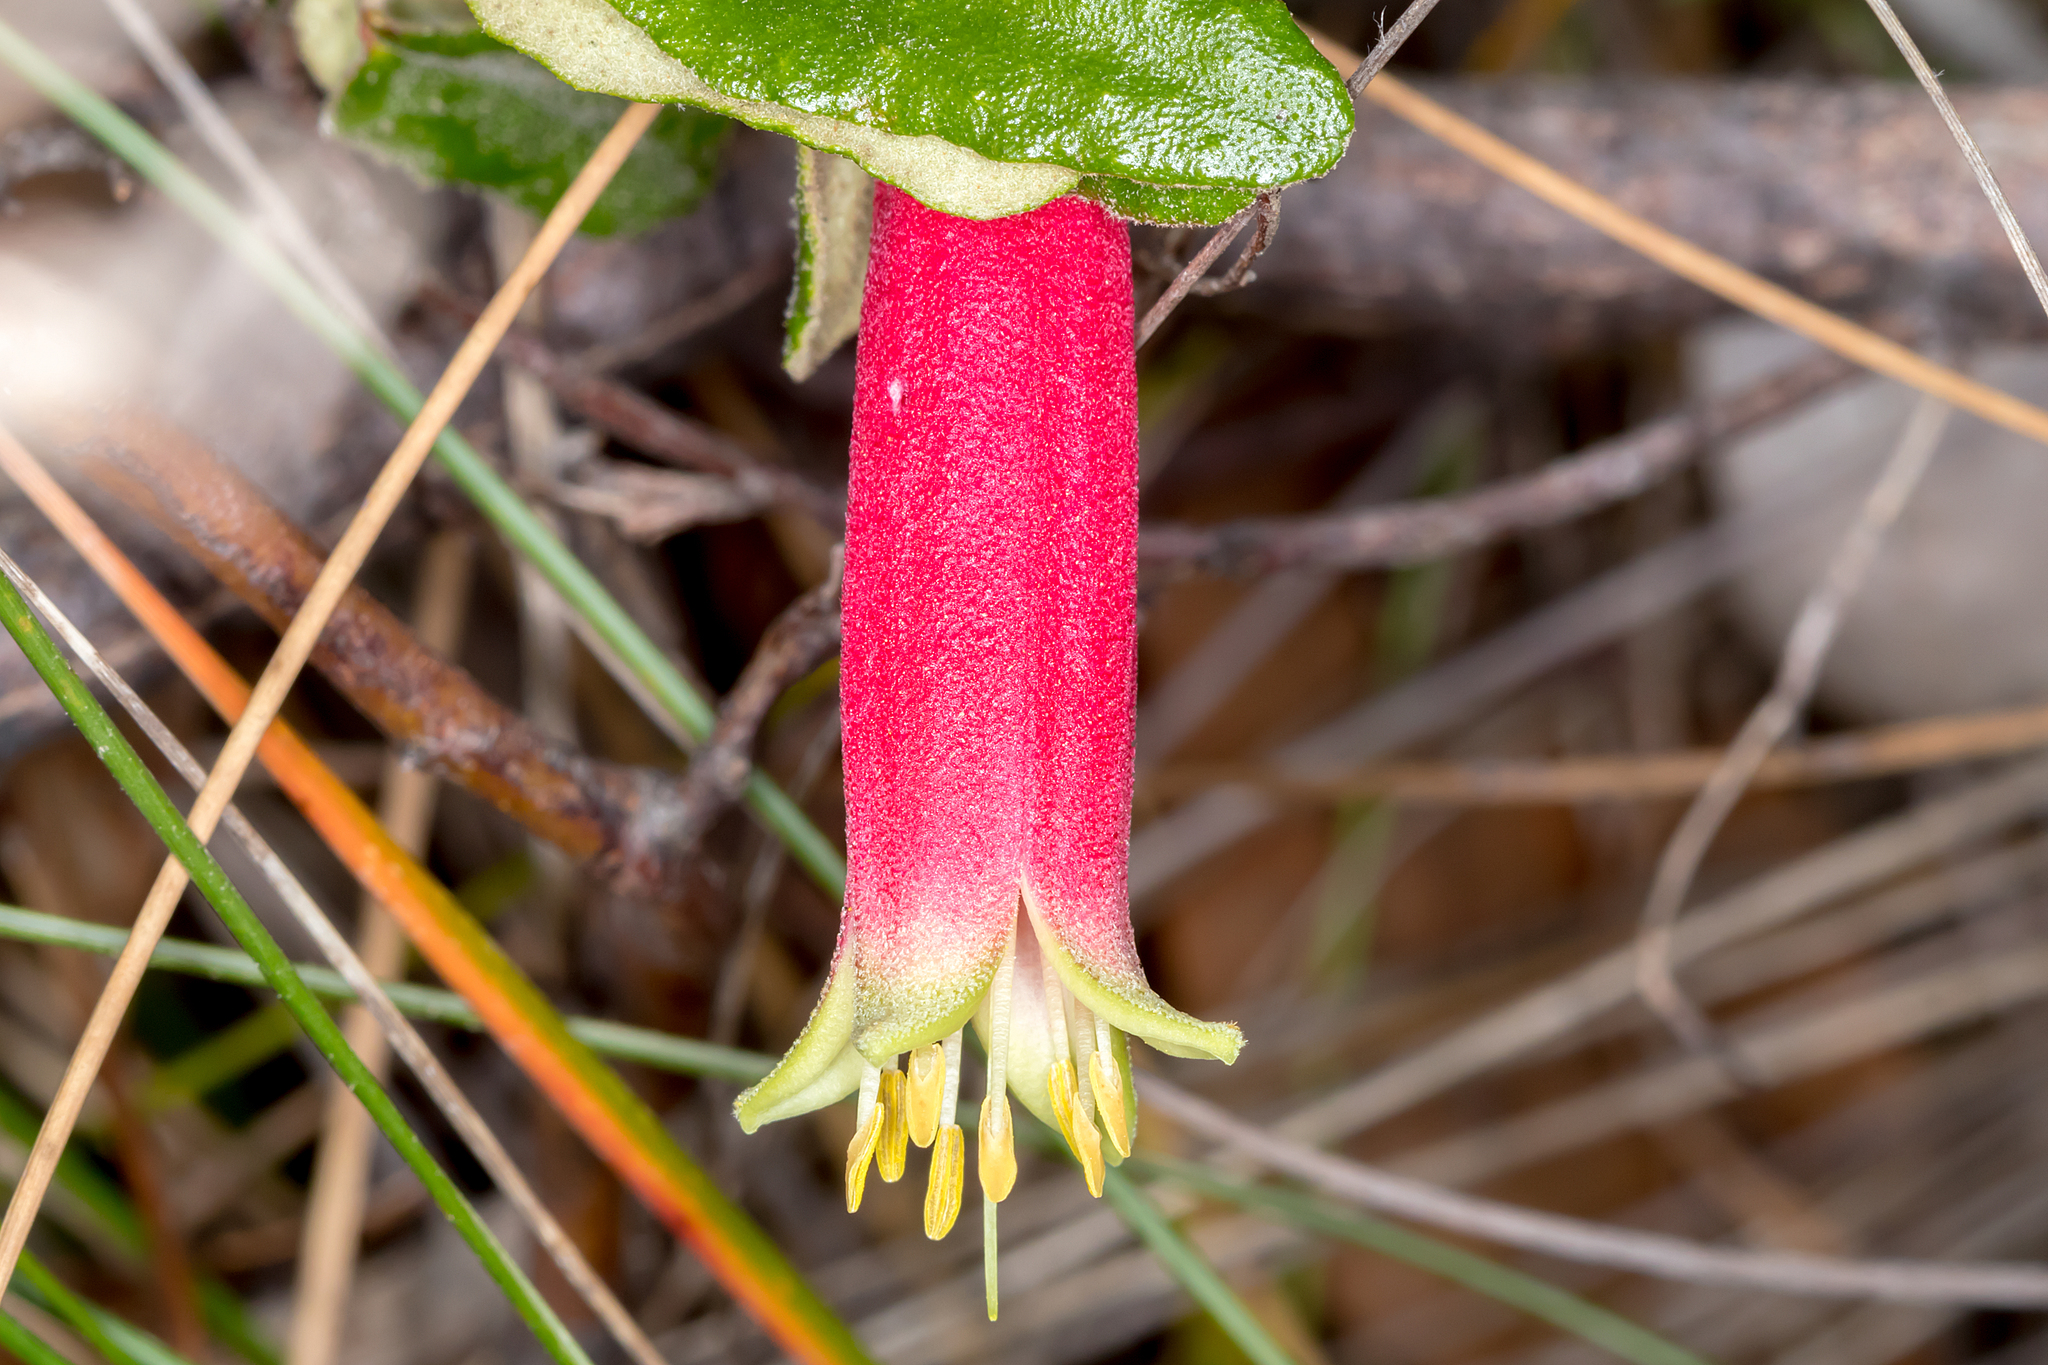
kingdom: Plantae
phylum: Tracheophyta
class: Magnoliopsida
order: Sapindales
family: Rutaceae
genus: Correa
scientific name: Correa reflexa
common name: Common correa
